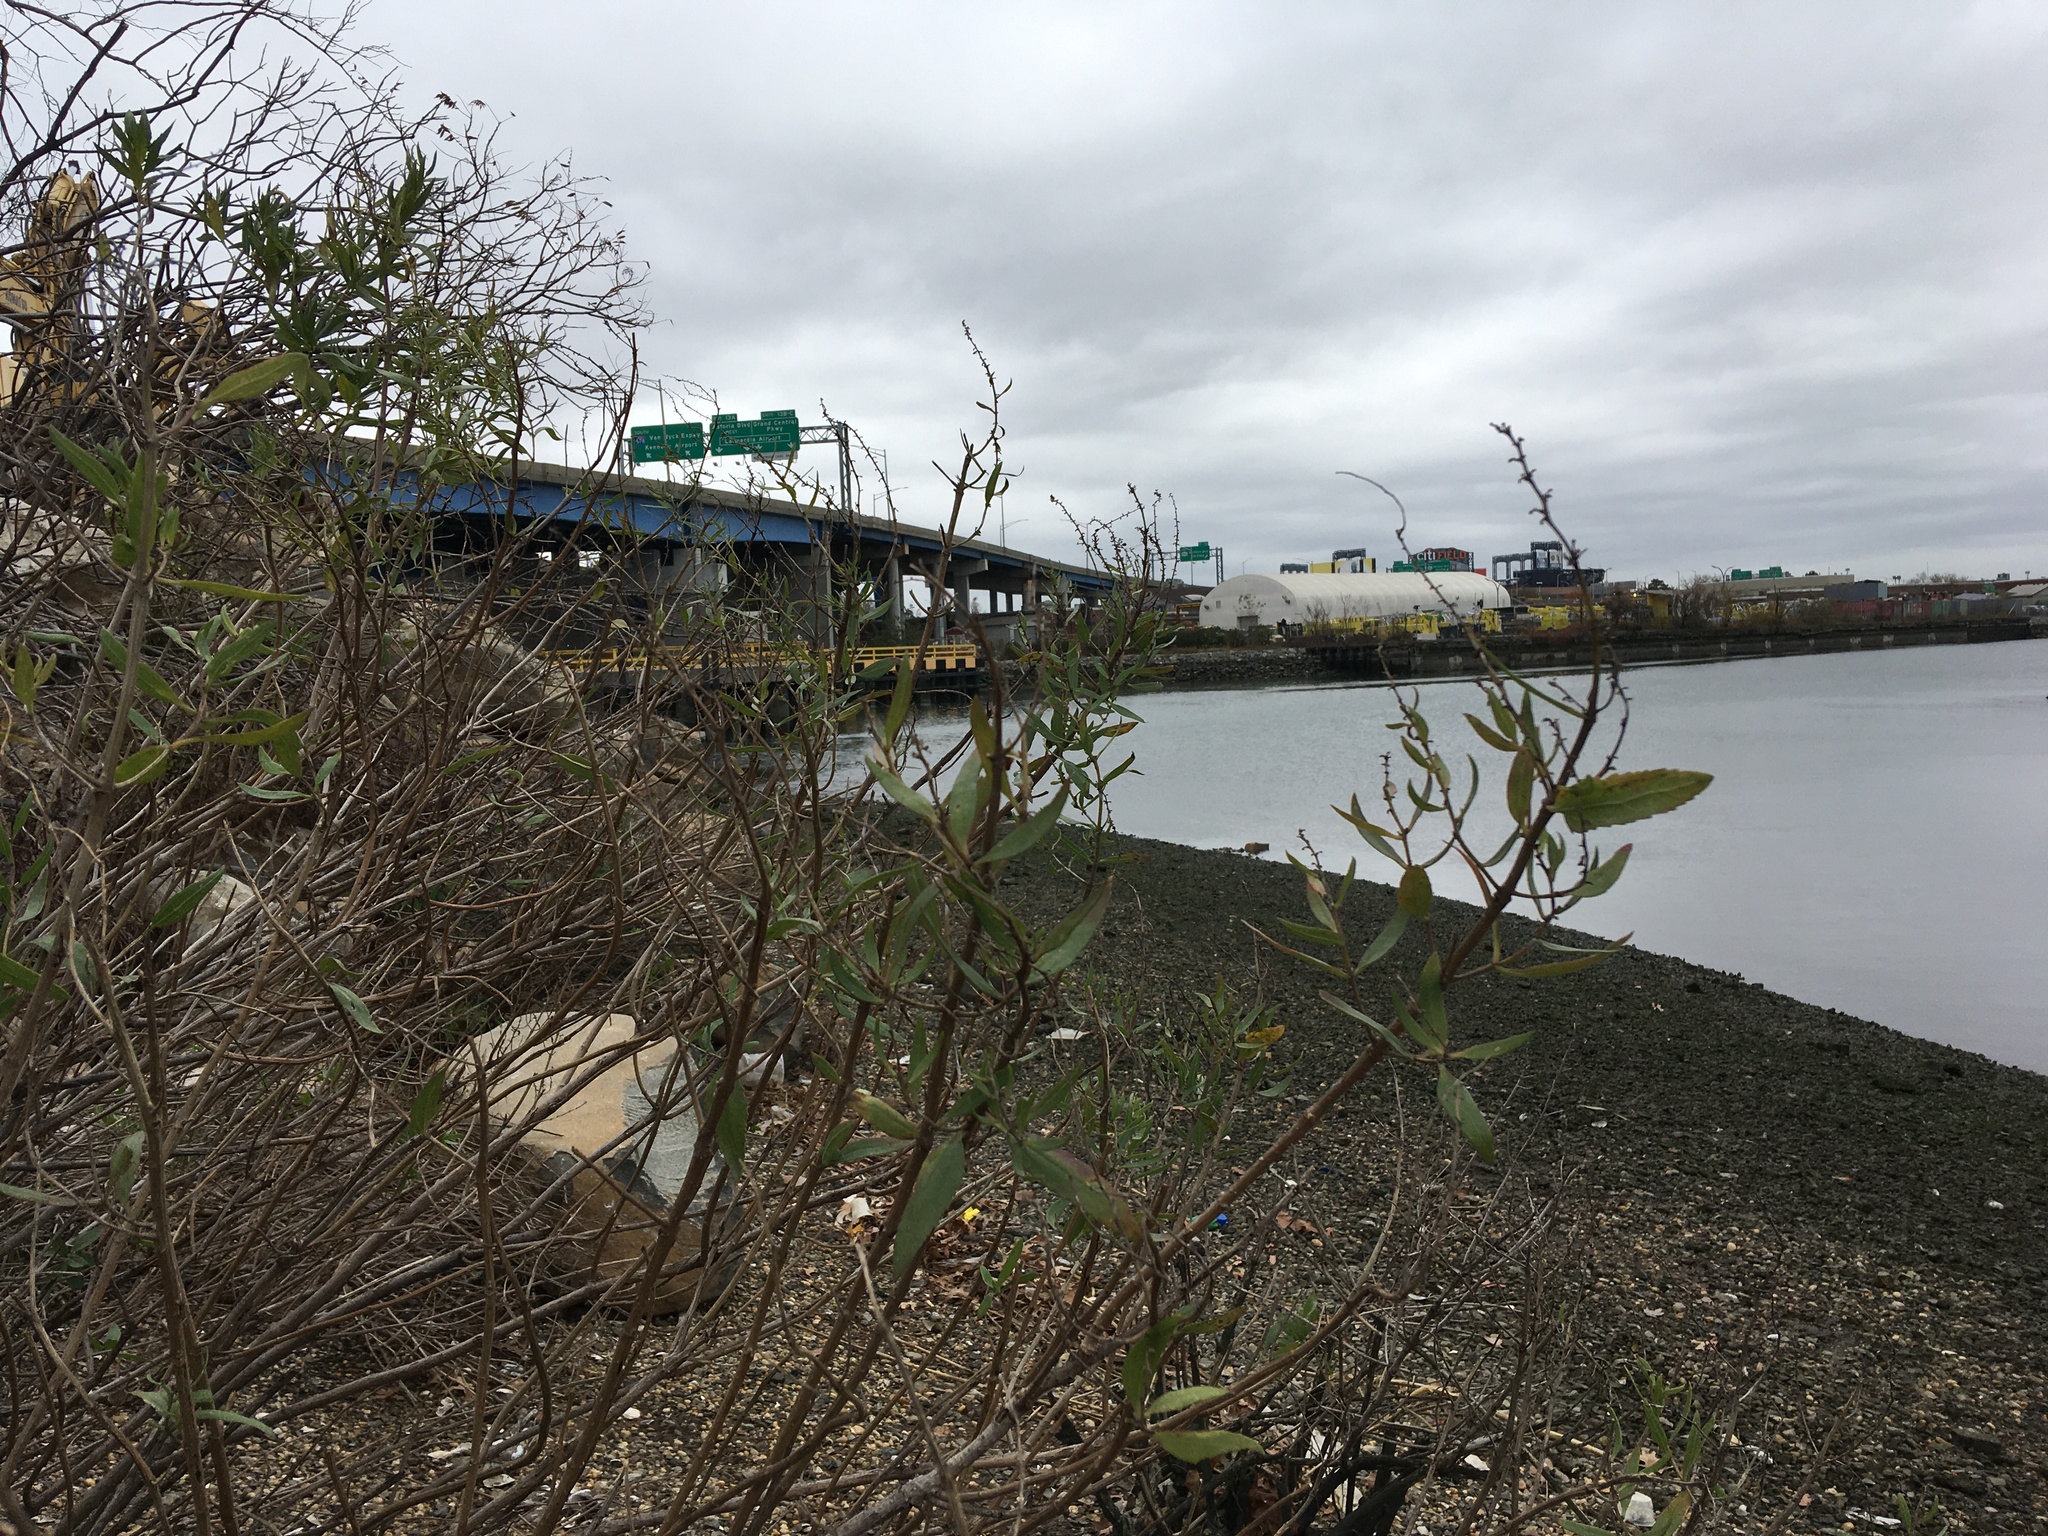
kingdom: Plantae
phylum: Tracheophyta
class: Magnoliopsida
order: Asterales
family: Asteraceae
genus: Iva
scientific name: Iva frutescens
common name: Big-leaved marsh-elder
